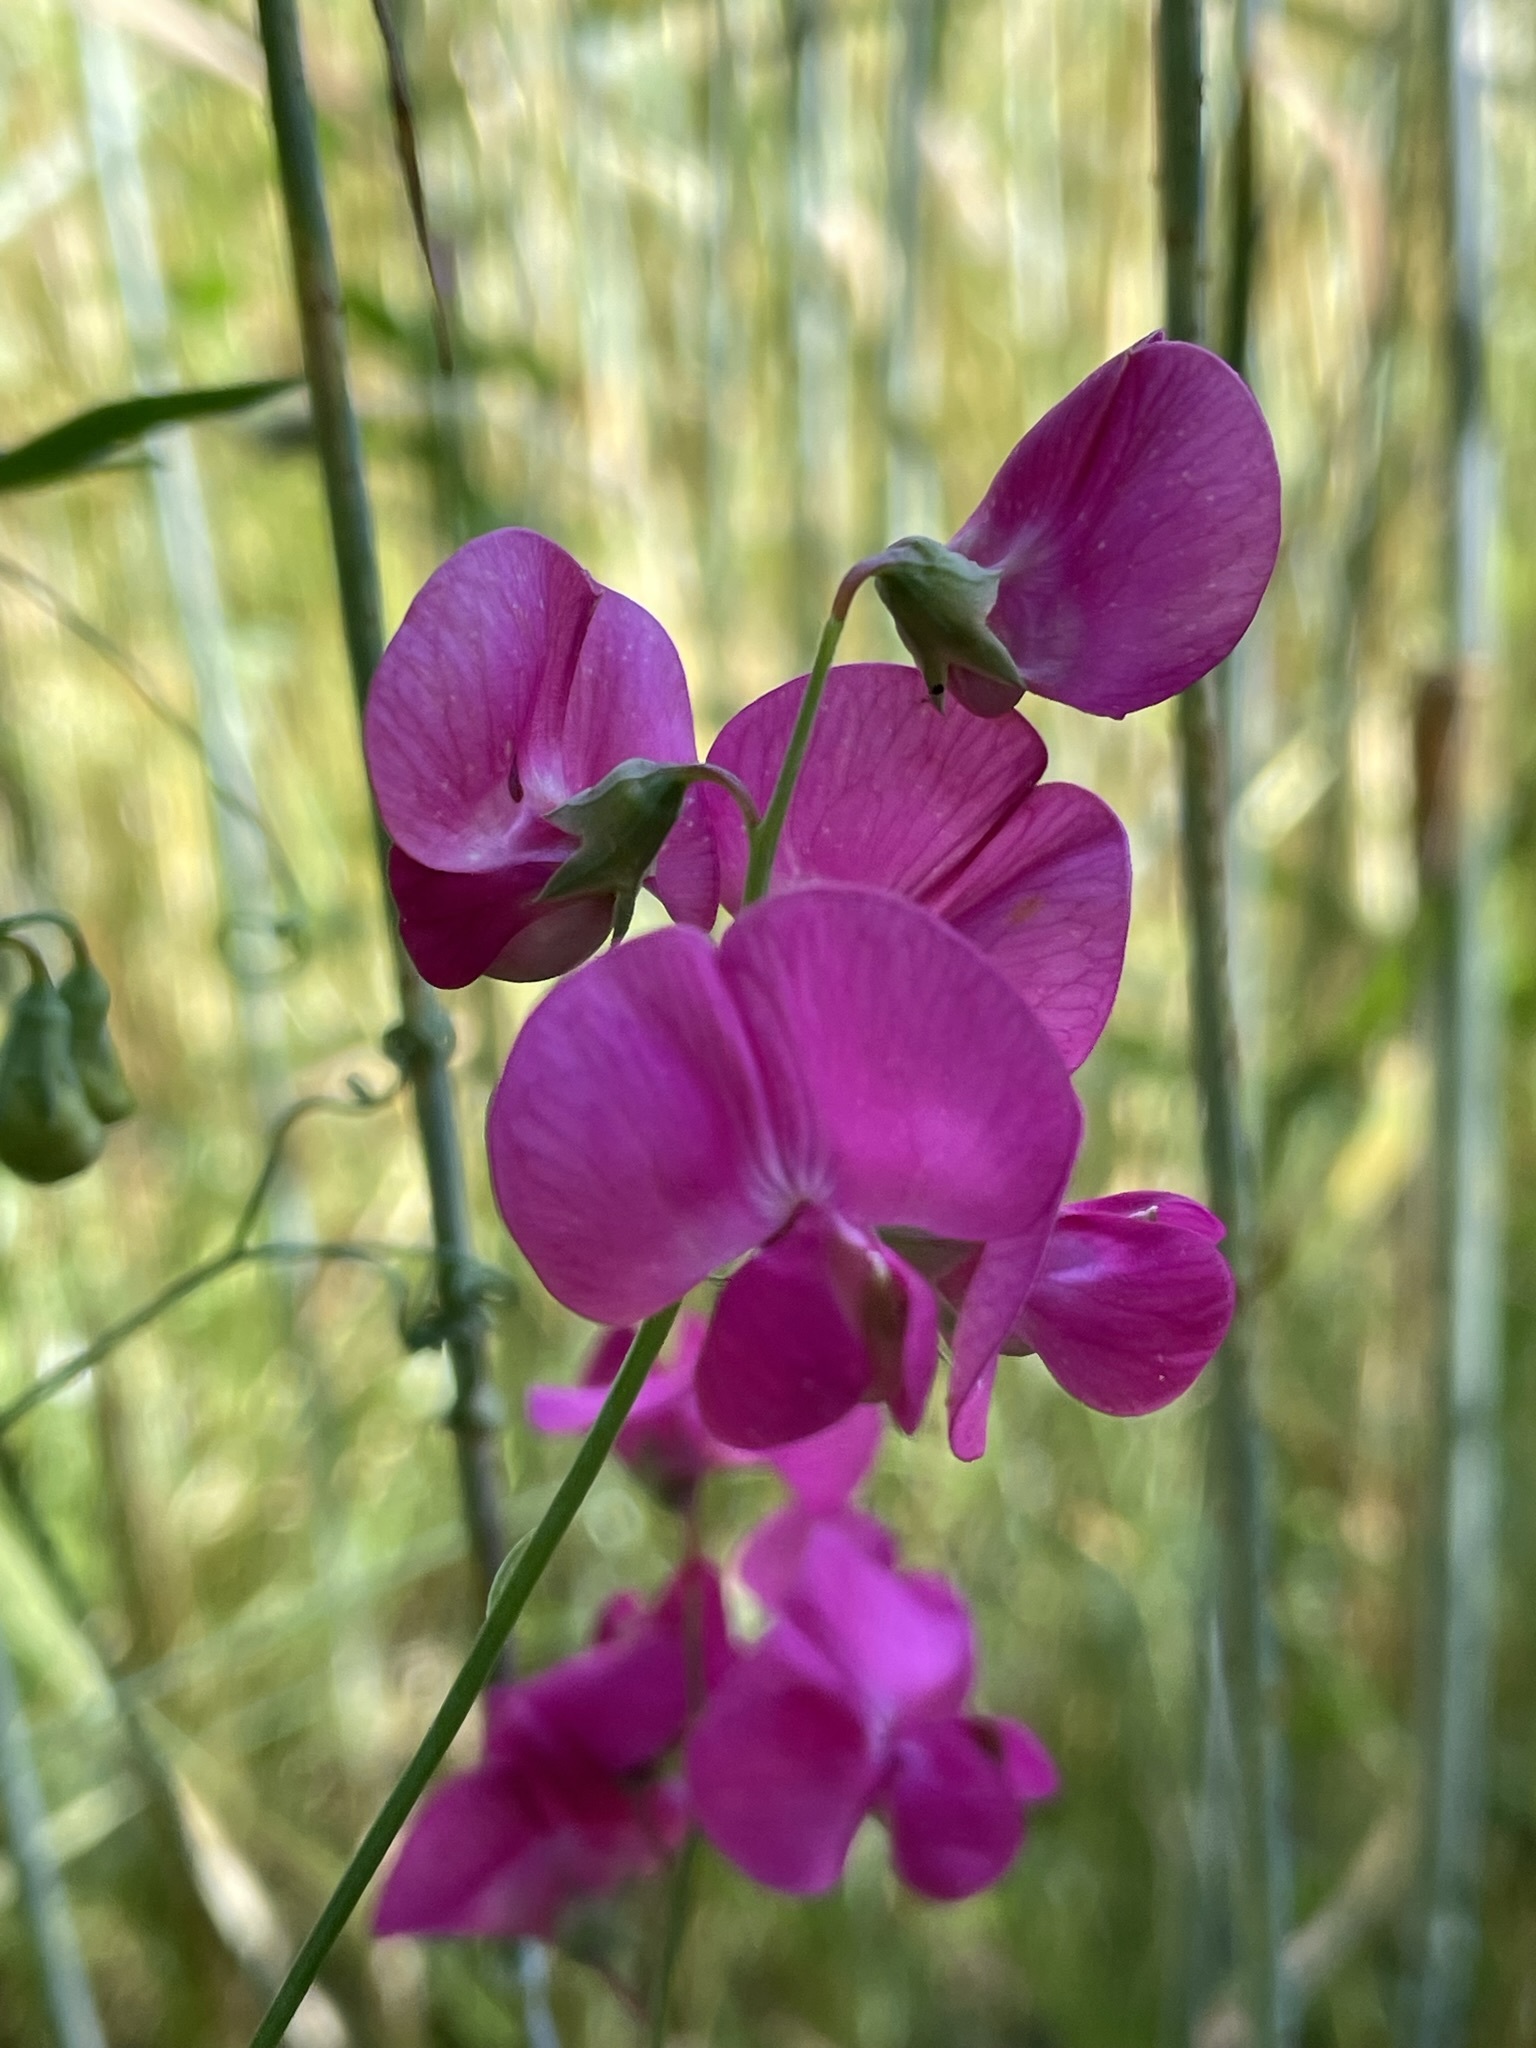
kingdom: Plantae
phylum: Tracheophyta
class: Magnoliopsida
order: Fabales
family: Fabaceae
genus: Lathyrus
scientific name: Lathyrus tuberosus
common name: Tuberous pea
